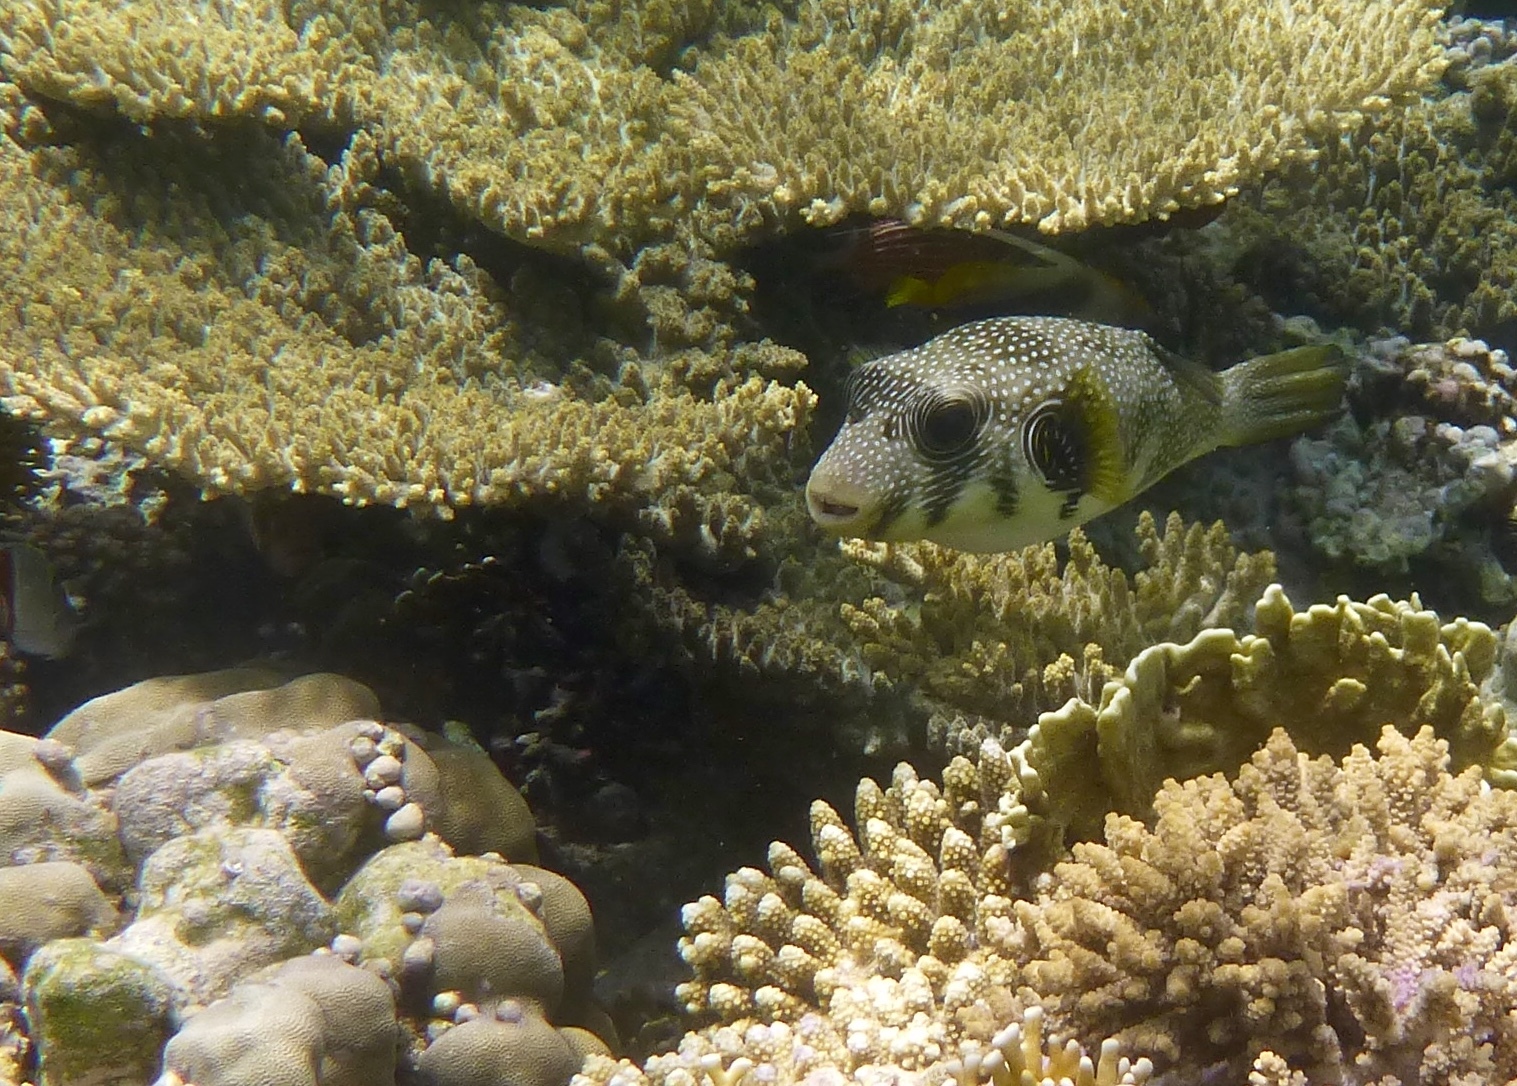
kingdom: Animalia
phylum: Chordata
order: Tetraodontiformes
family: Tetraodontidae
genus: Arothron
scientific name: Arothron hispidus
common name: Stripebelly puffer
